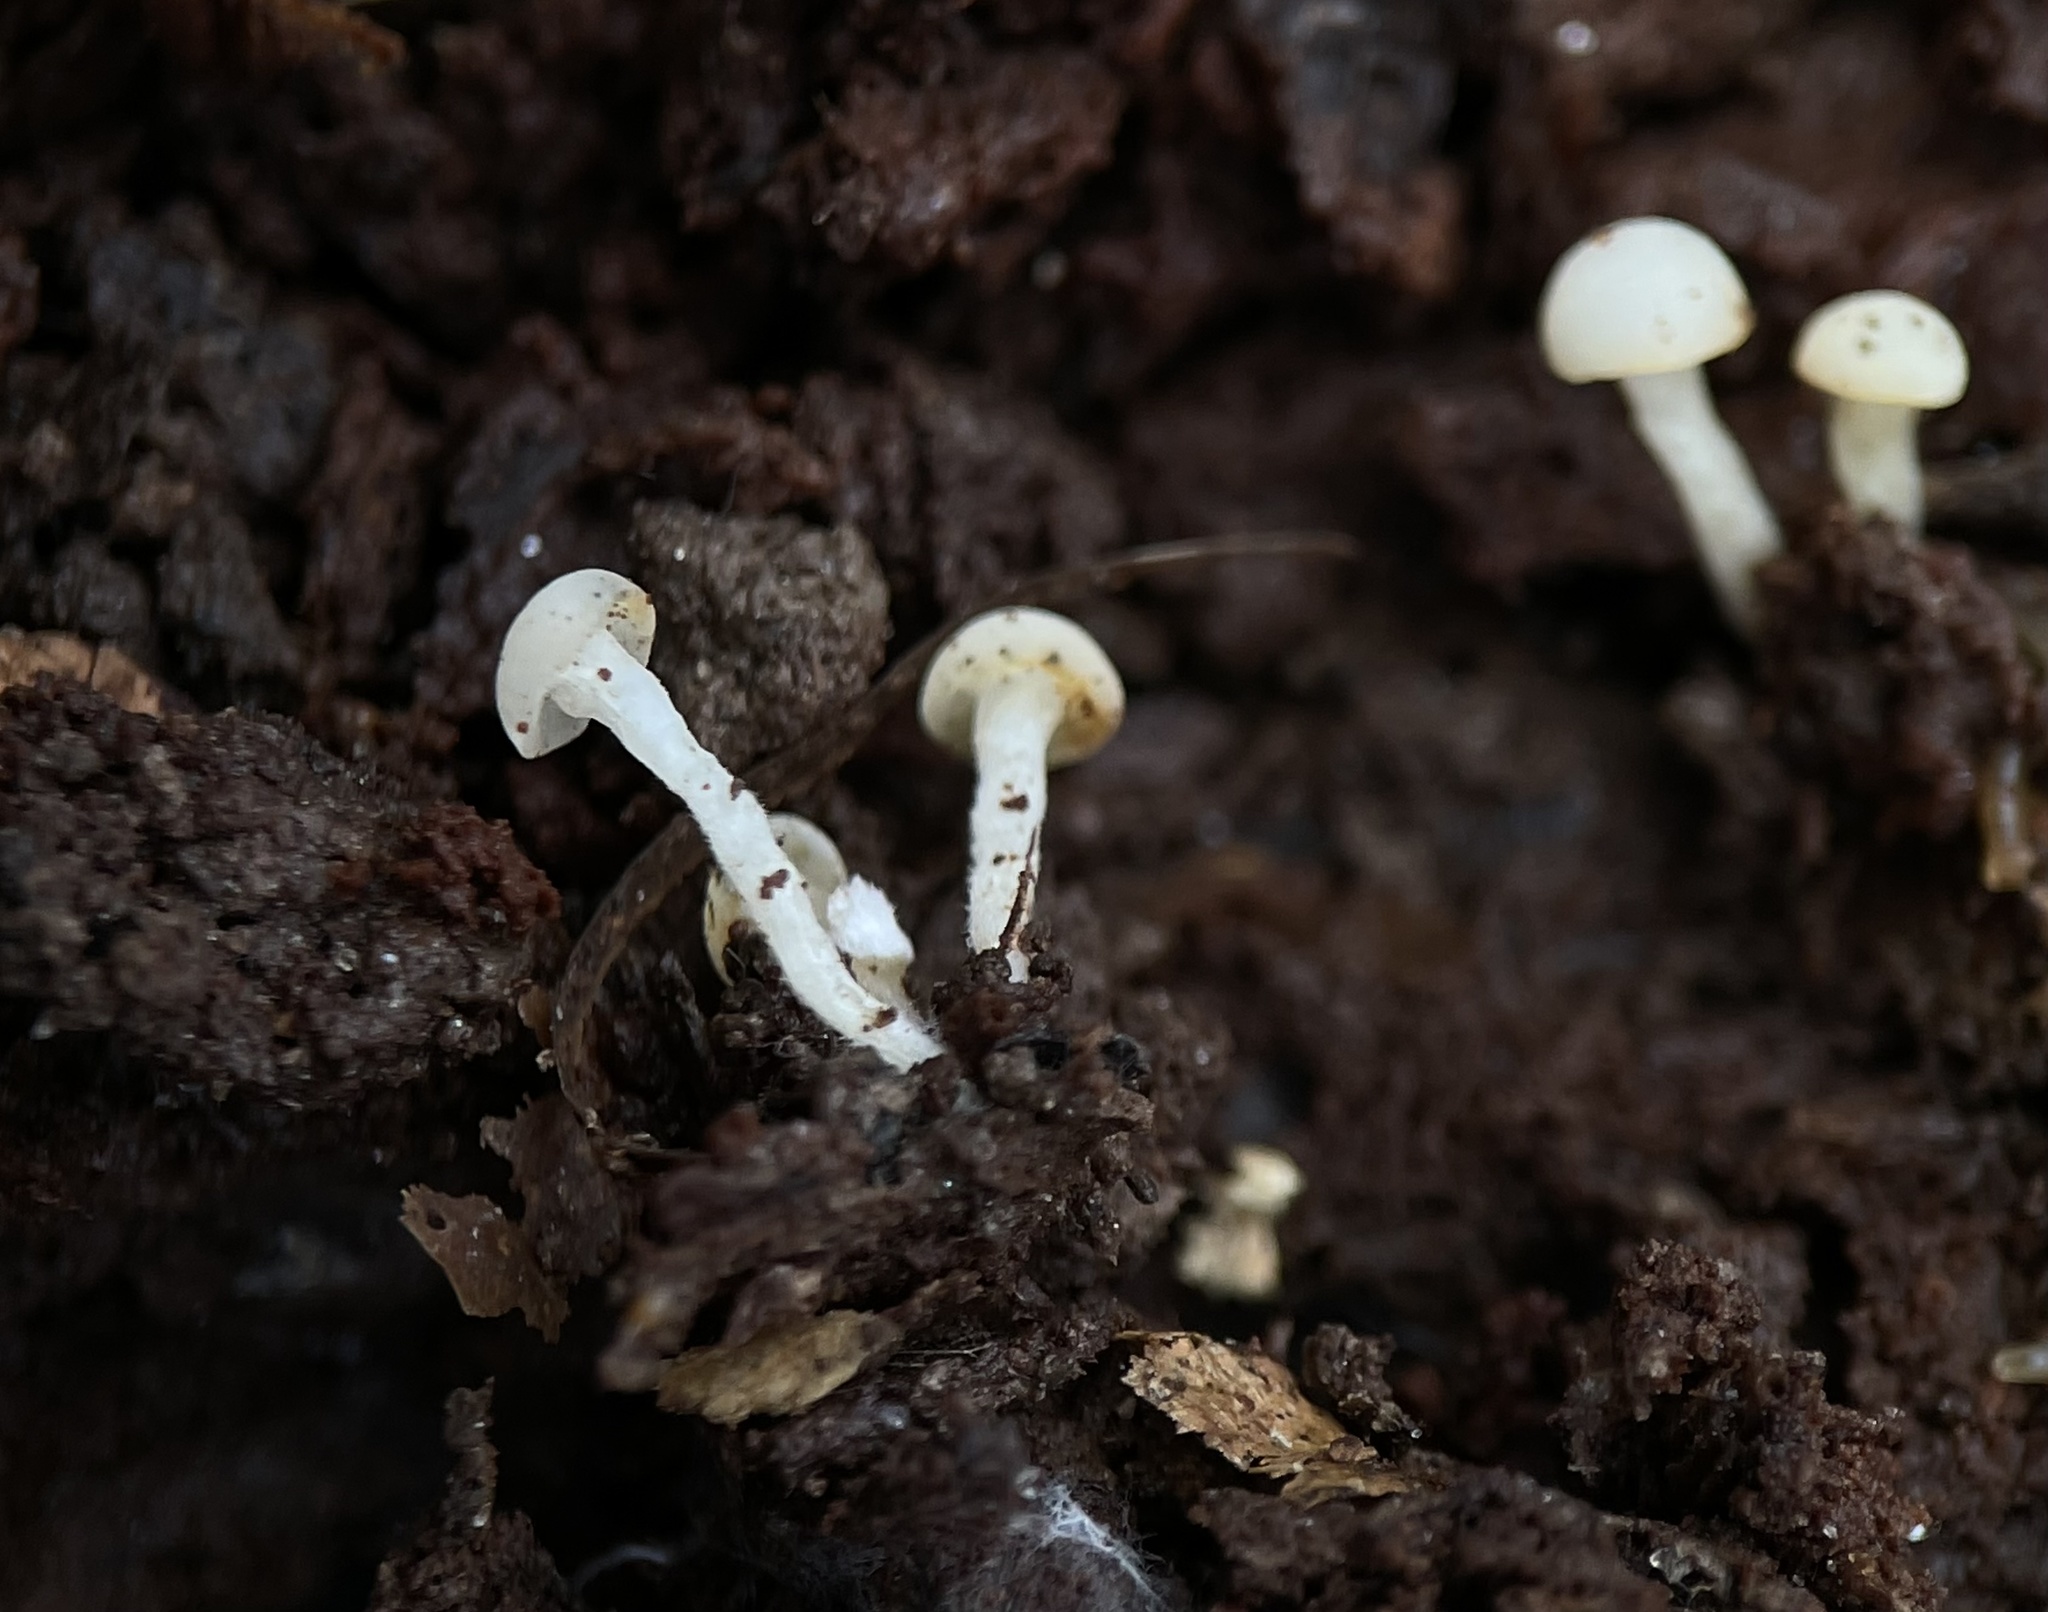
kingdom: Fungi
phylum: Ascomycota
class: Leotiomycetes
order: Helotiales
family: Tricladiaceae
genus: Cudoniella
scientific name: Cudoniella acicularis
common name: Oak pin
